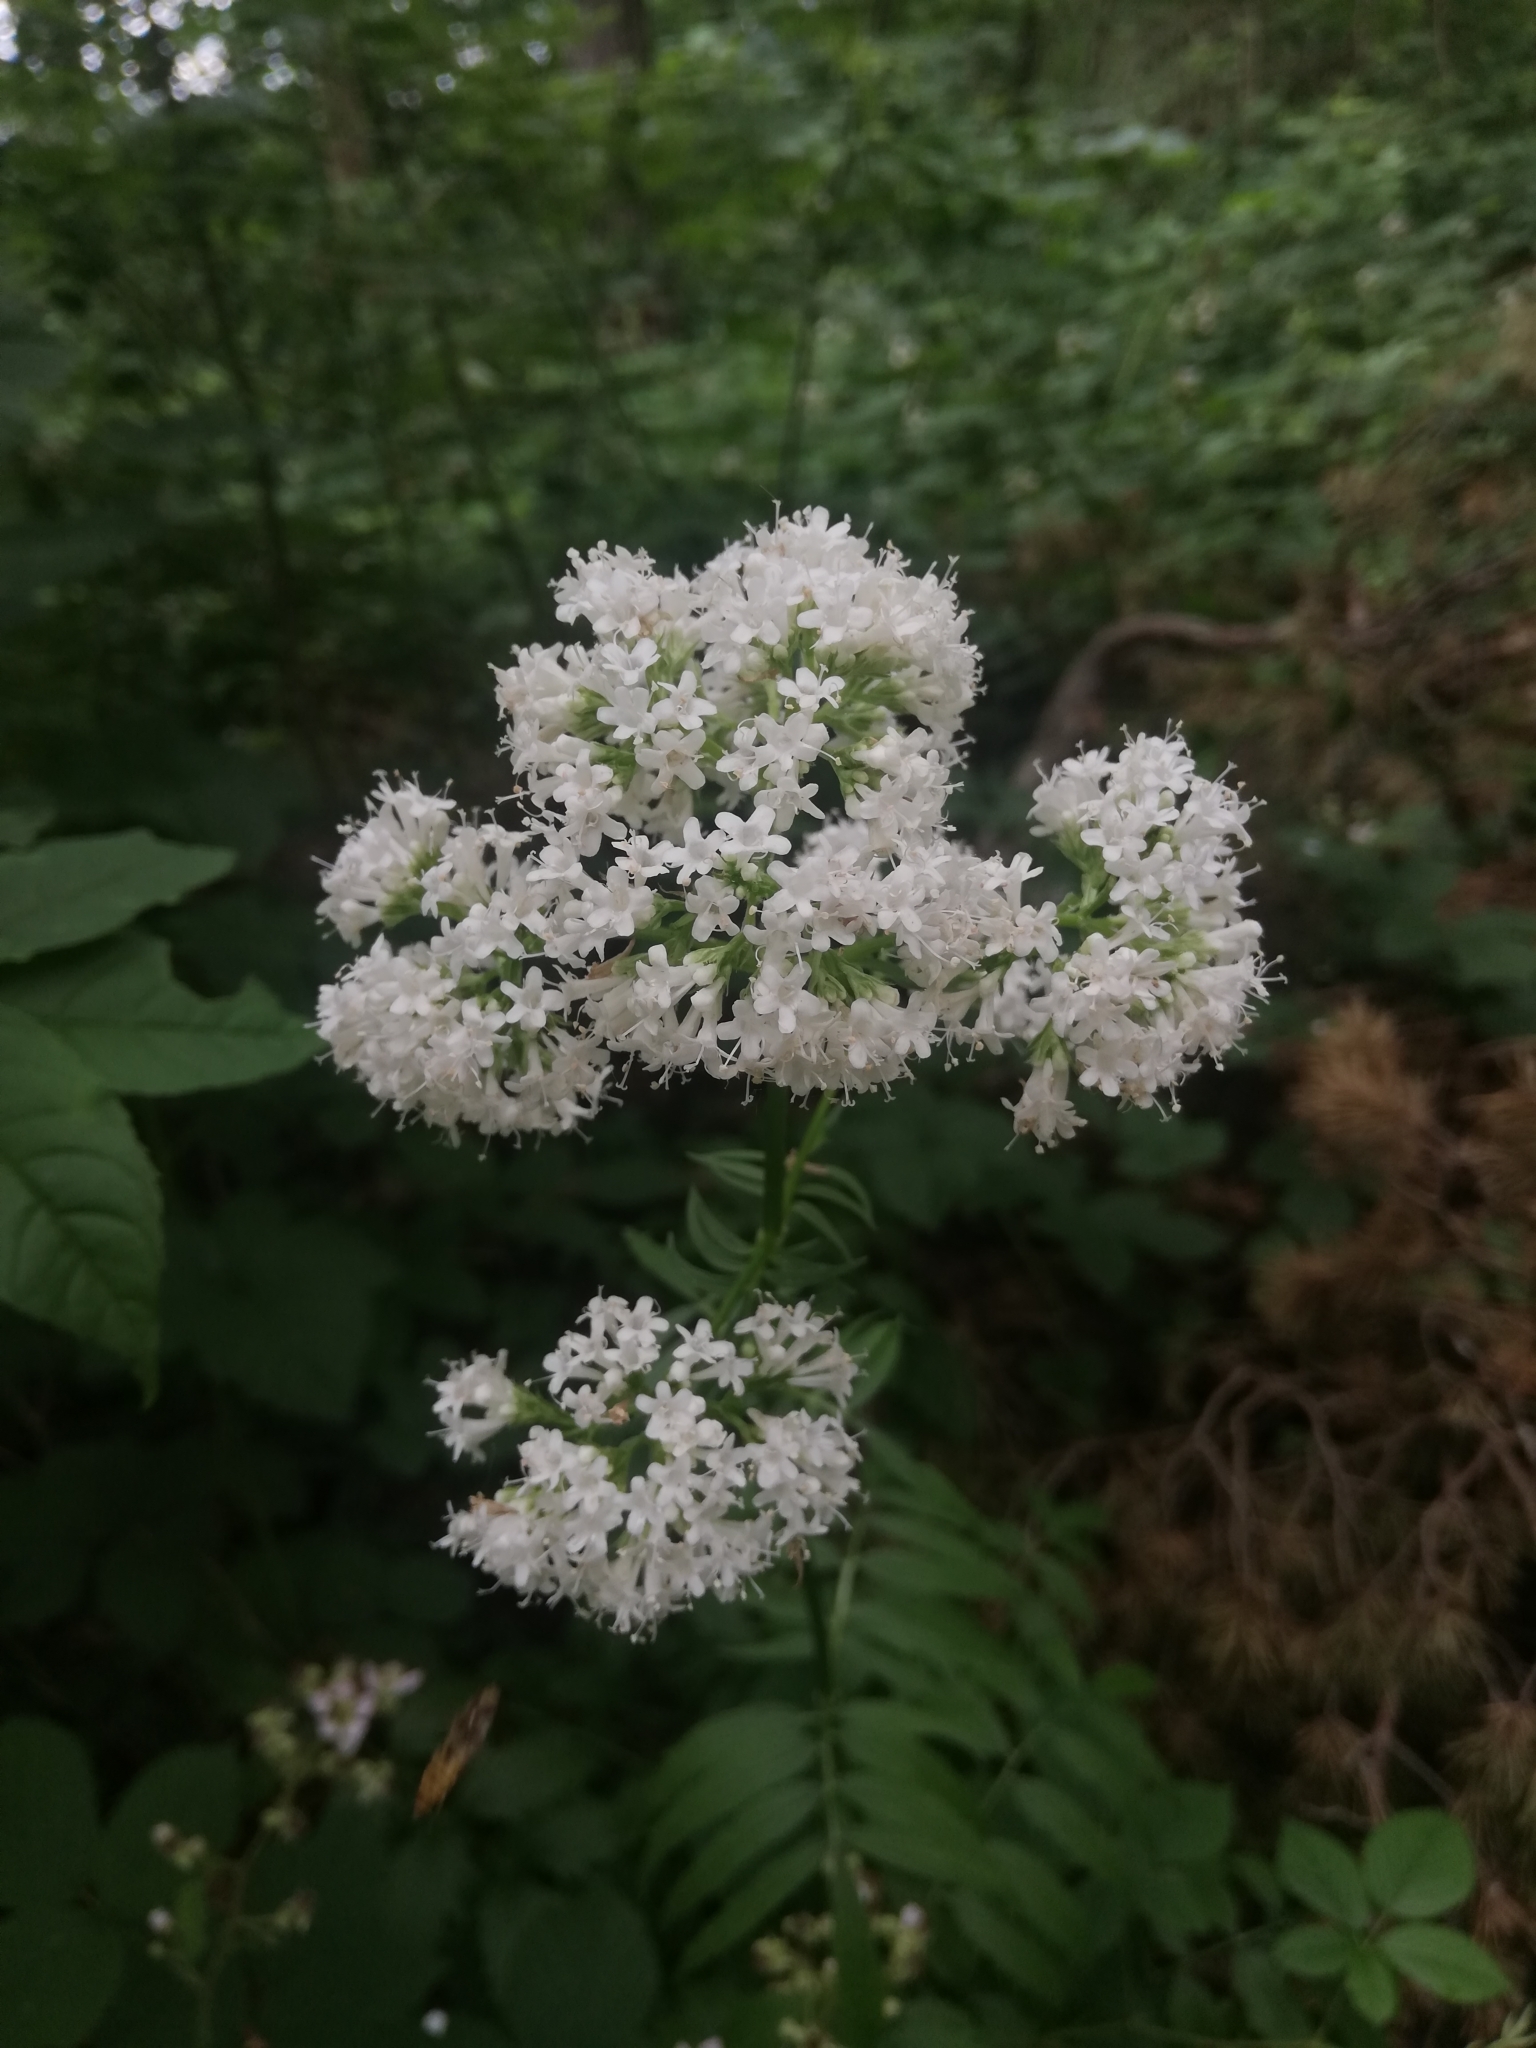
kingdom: Plantae
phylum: Tracheophyta
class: Magnoliopsida
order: Dipsacales
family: Caprifoliaceae
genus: Valeriana
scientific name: Valeriana officinalis
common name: Common valerian
